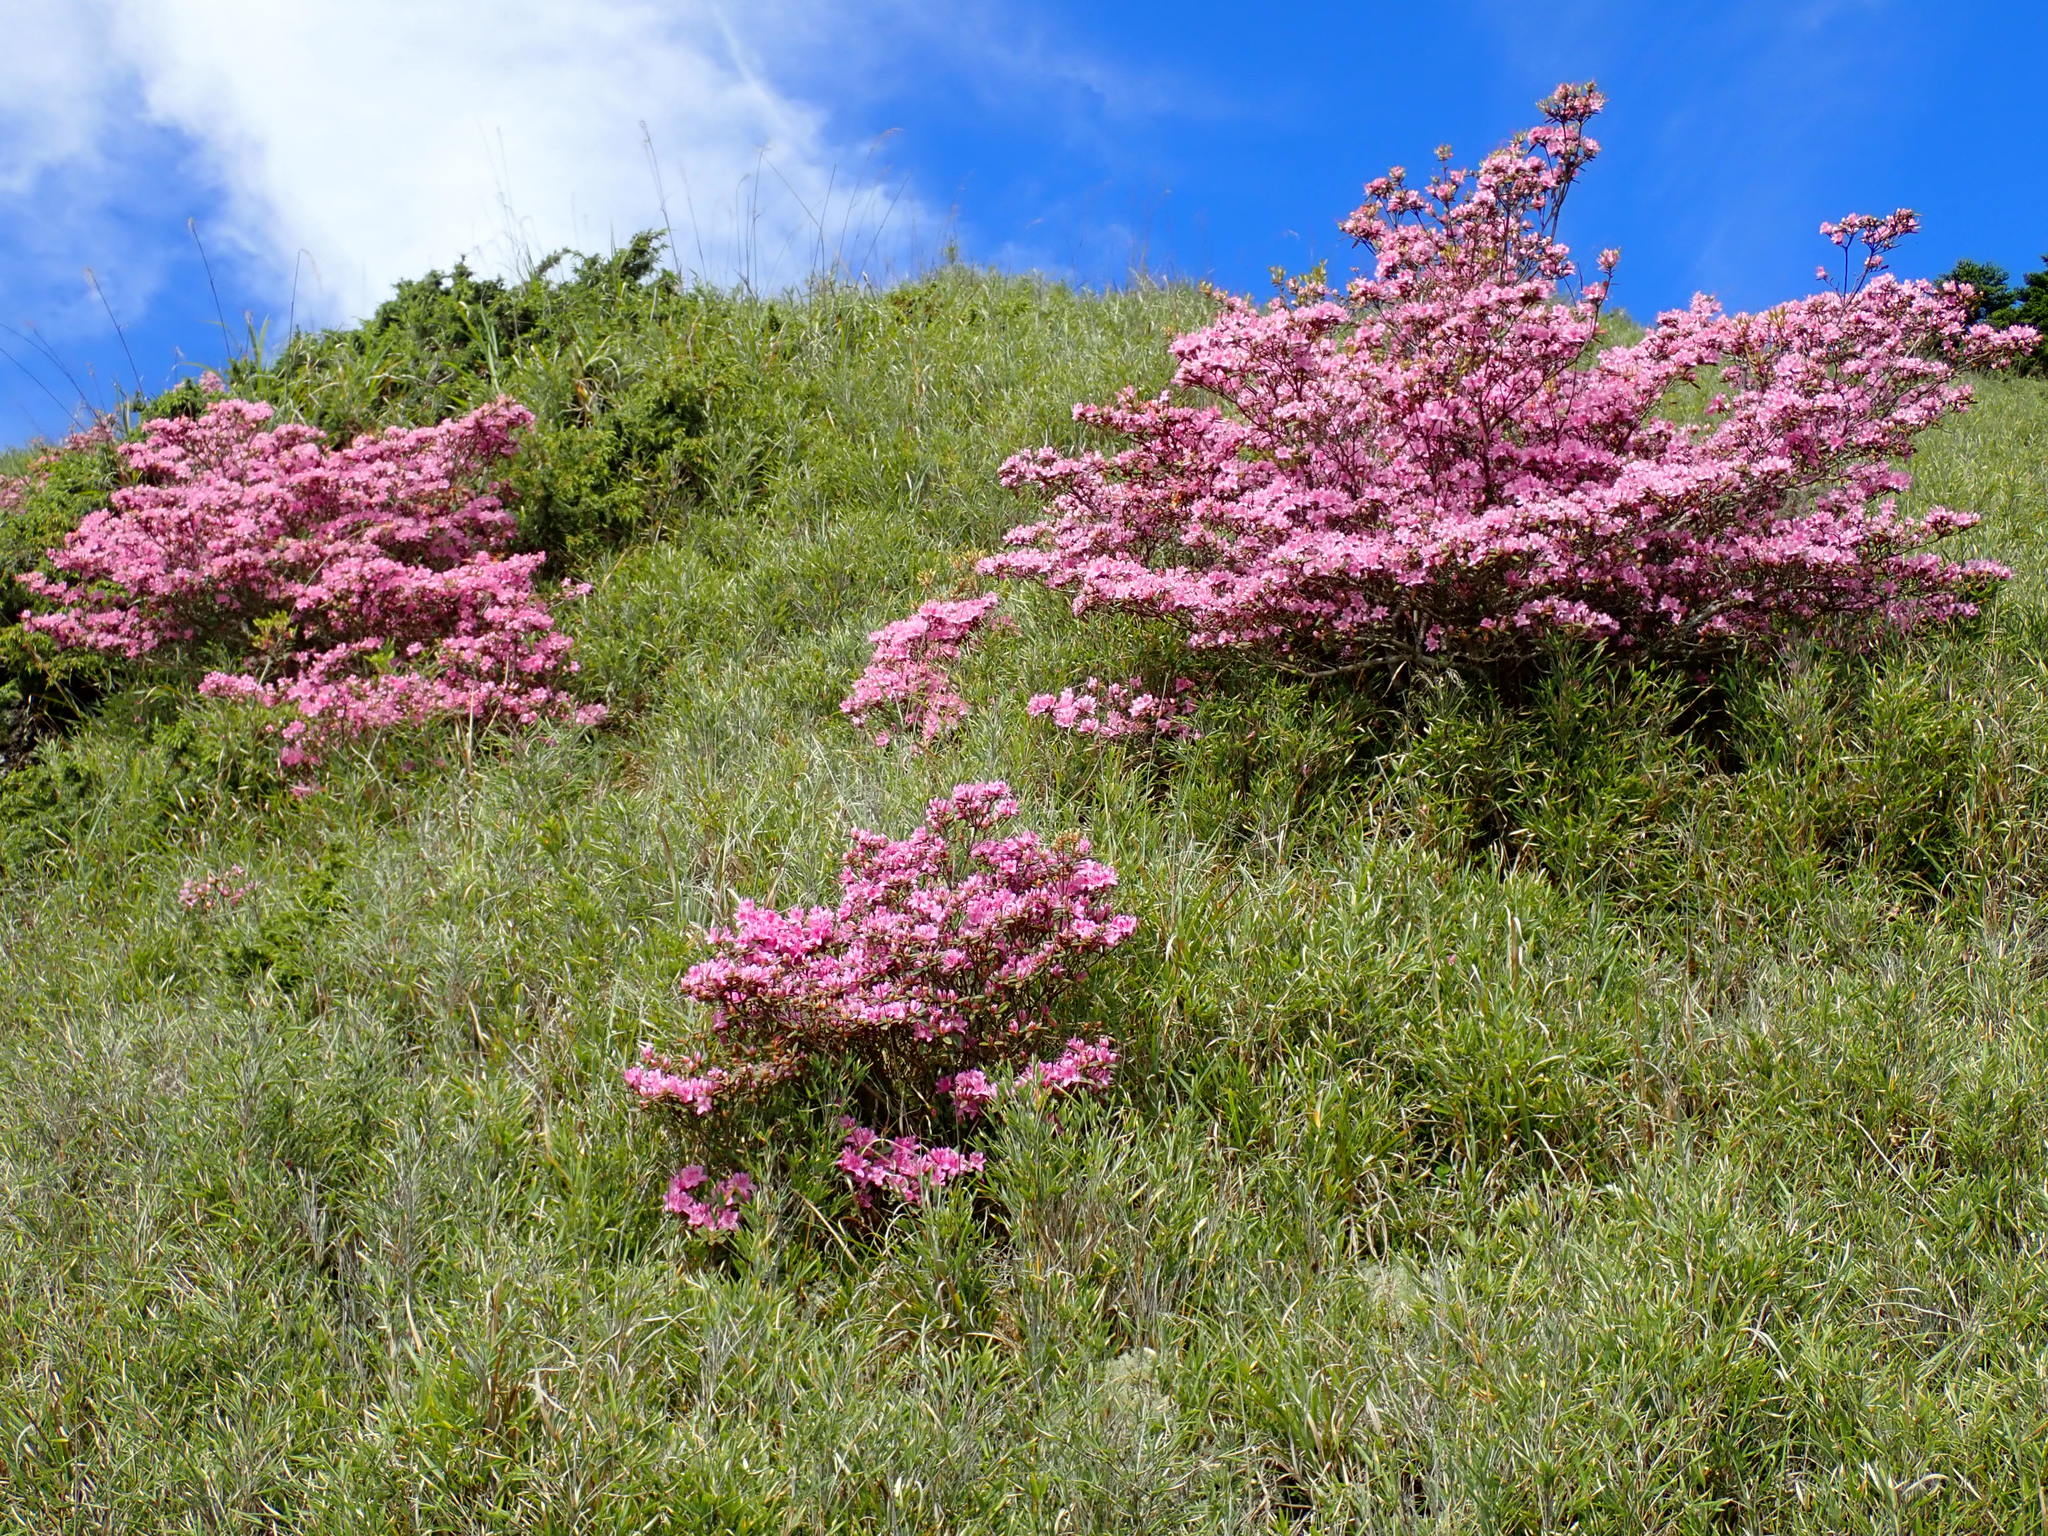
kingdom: Plantae
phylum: Tracheophyta
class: Magnoliopsida
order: Ericales
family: Ericaceae
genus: Rhododendron
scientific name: Rhododendron taiwanalpinum
